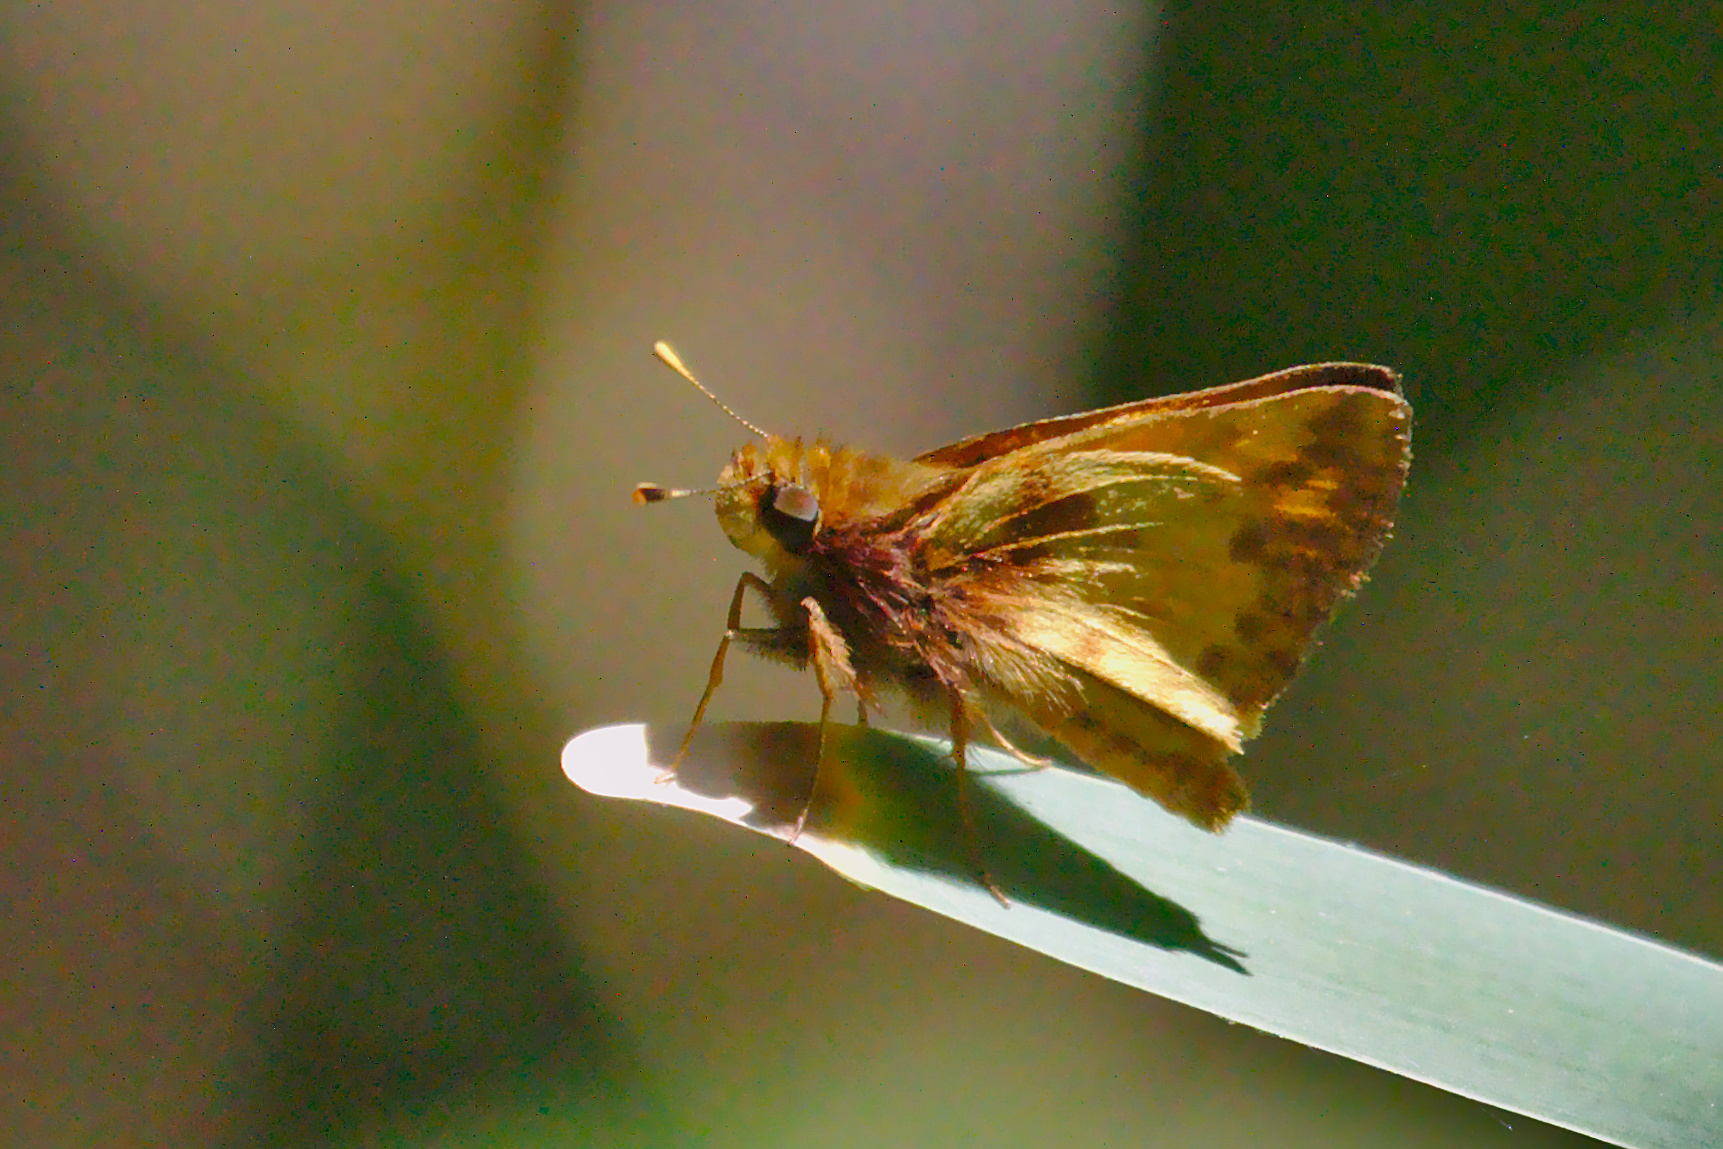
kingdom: Animalia
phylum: Arthropoda
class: Insecta
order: Lepidoptera
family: Hesperiidae
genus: Lon
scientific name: Lon zabulon
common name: Zabulon skipper
